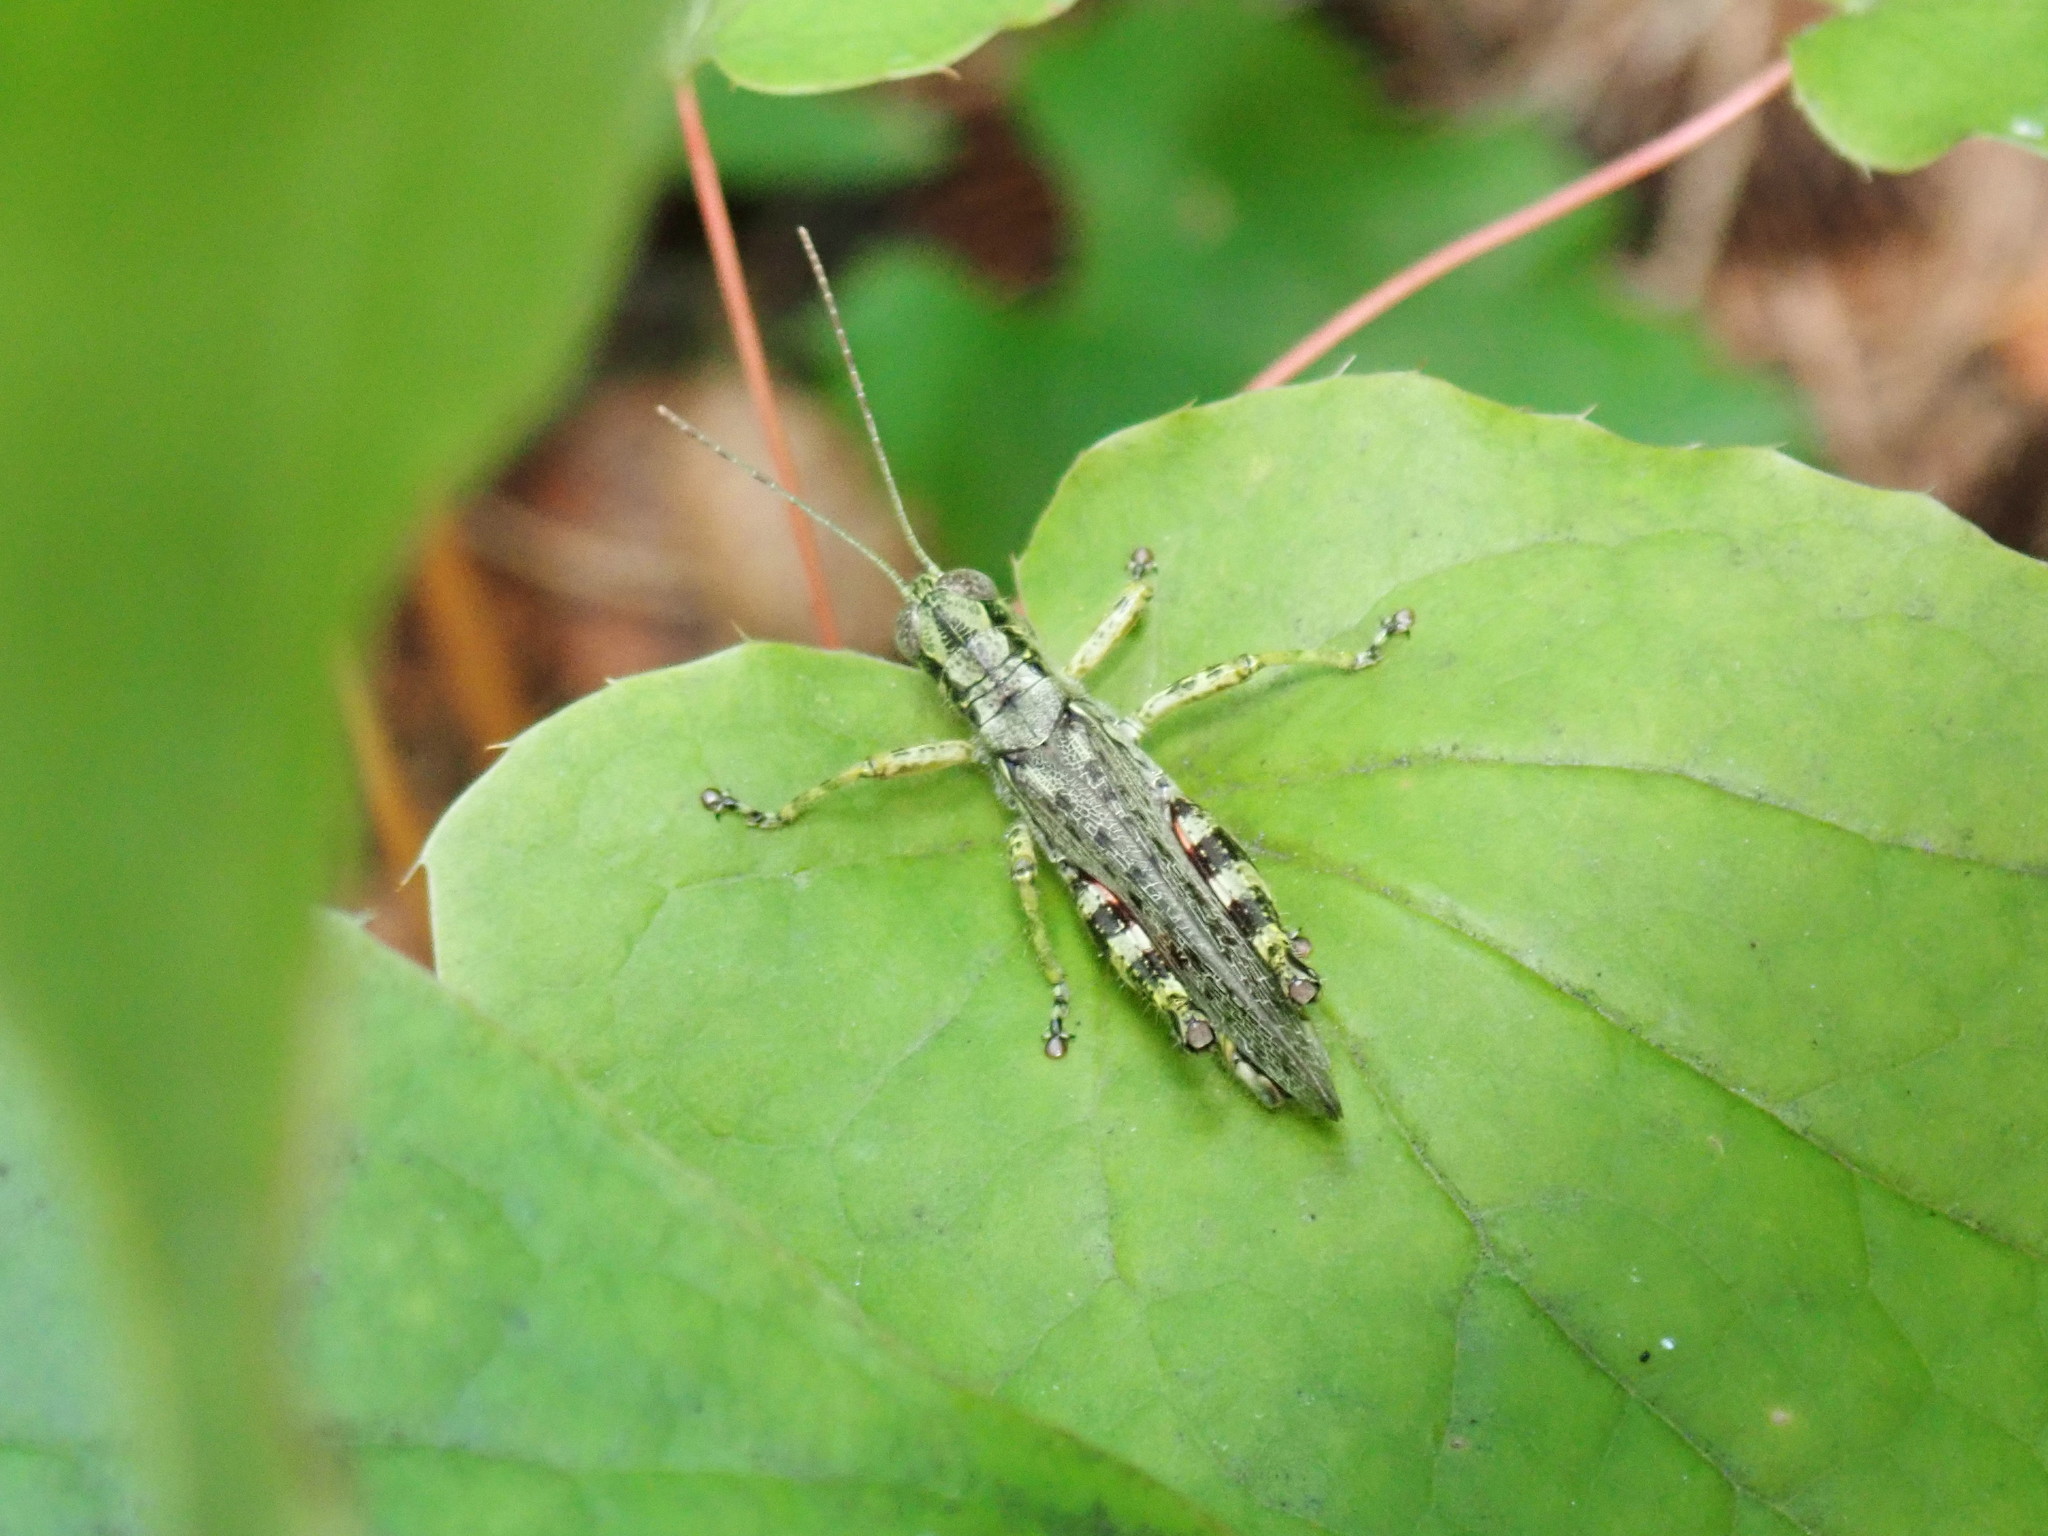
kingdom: Animalia
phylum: Arthropoda
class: Insecta
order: Orthoptera
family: Acrididae
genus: Melanoplus
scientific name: Melanoplus punctulatus
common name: Pine-tree spur-throat grasshopper
